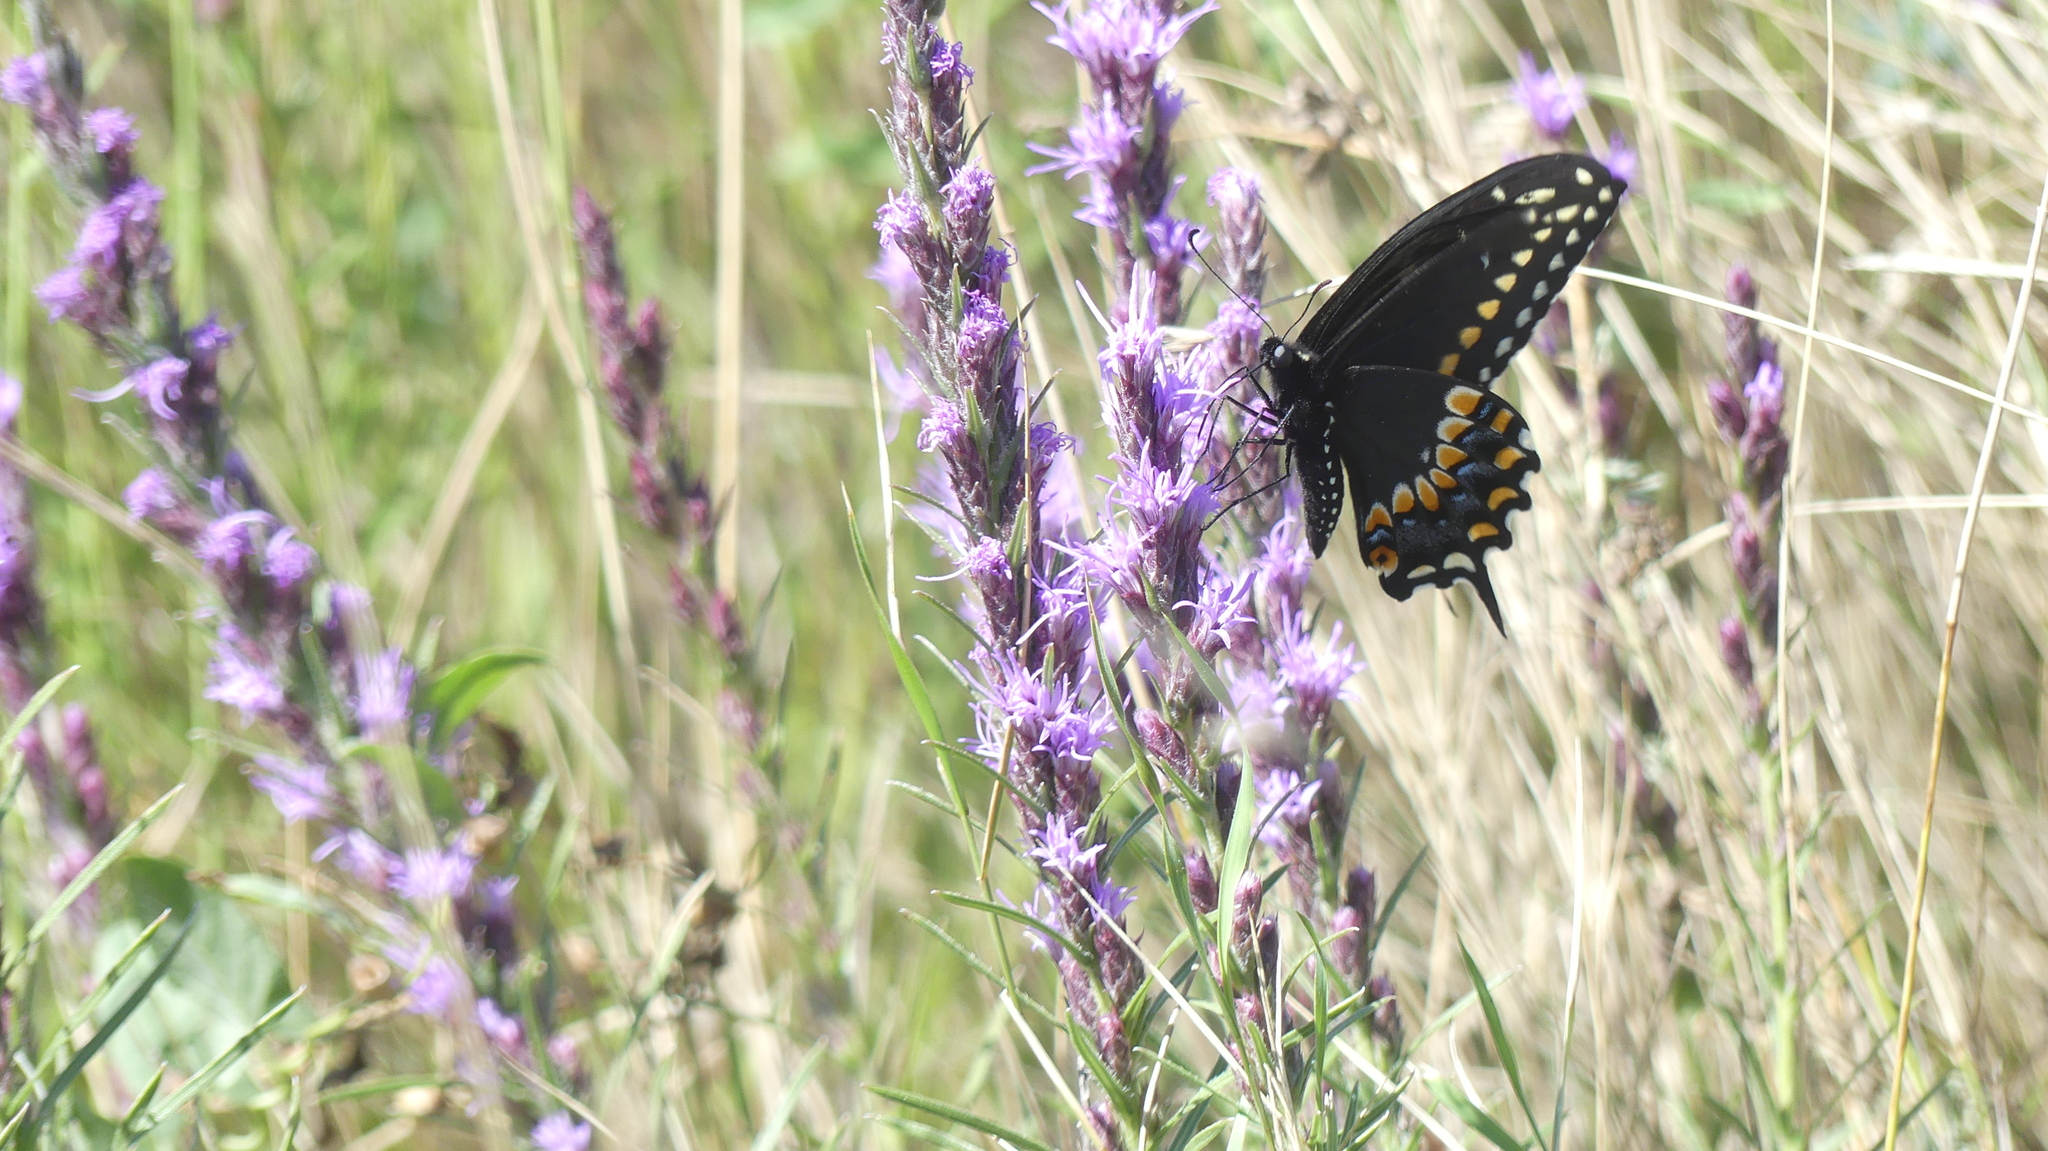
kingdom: Animalia
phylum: Arthropoda
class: Insecta
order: Lepidoptera
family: Papilionidae
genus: Papilio
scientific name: Papilio polyxenes
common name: Black swallowtail
